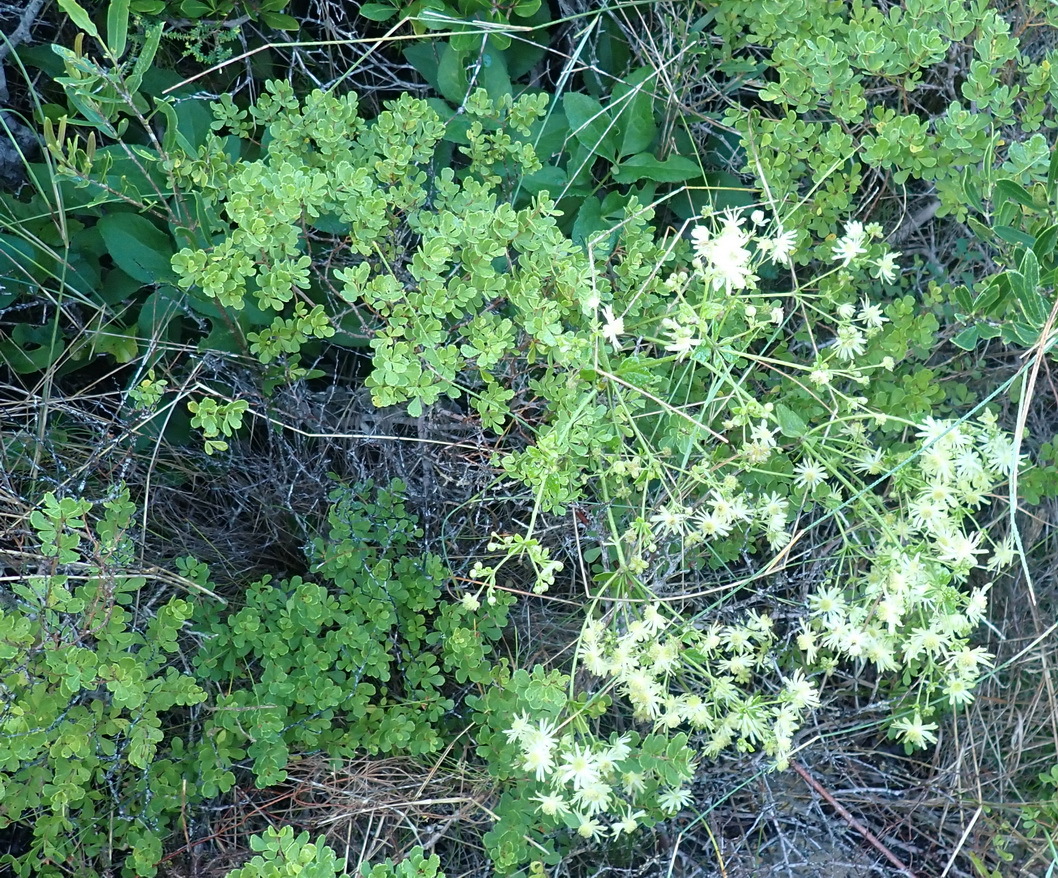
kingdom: Plantae
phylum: Tracheophyta
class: Magnoliopsida
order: Ranunculales
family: Ranunculaceae
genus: Knowltonia
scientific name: Knowltonia vesicatoria
